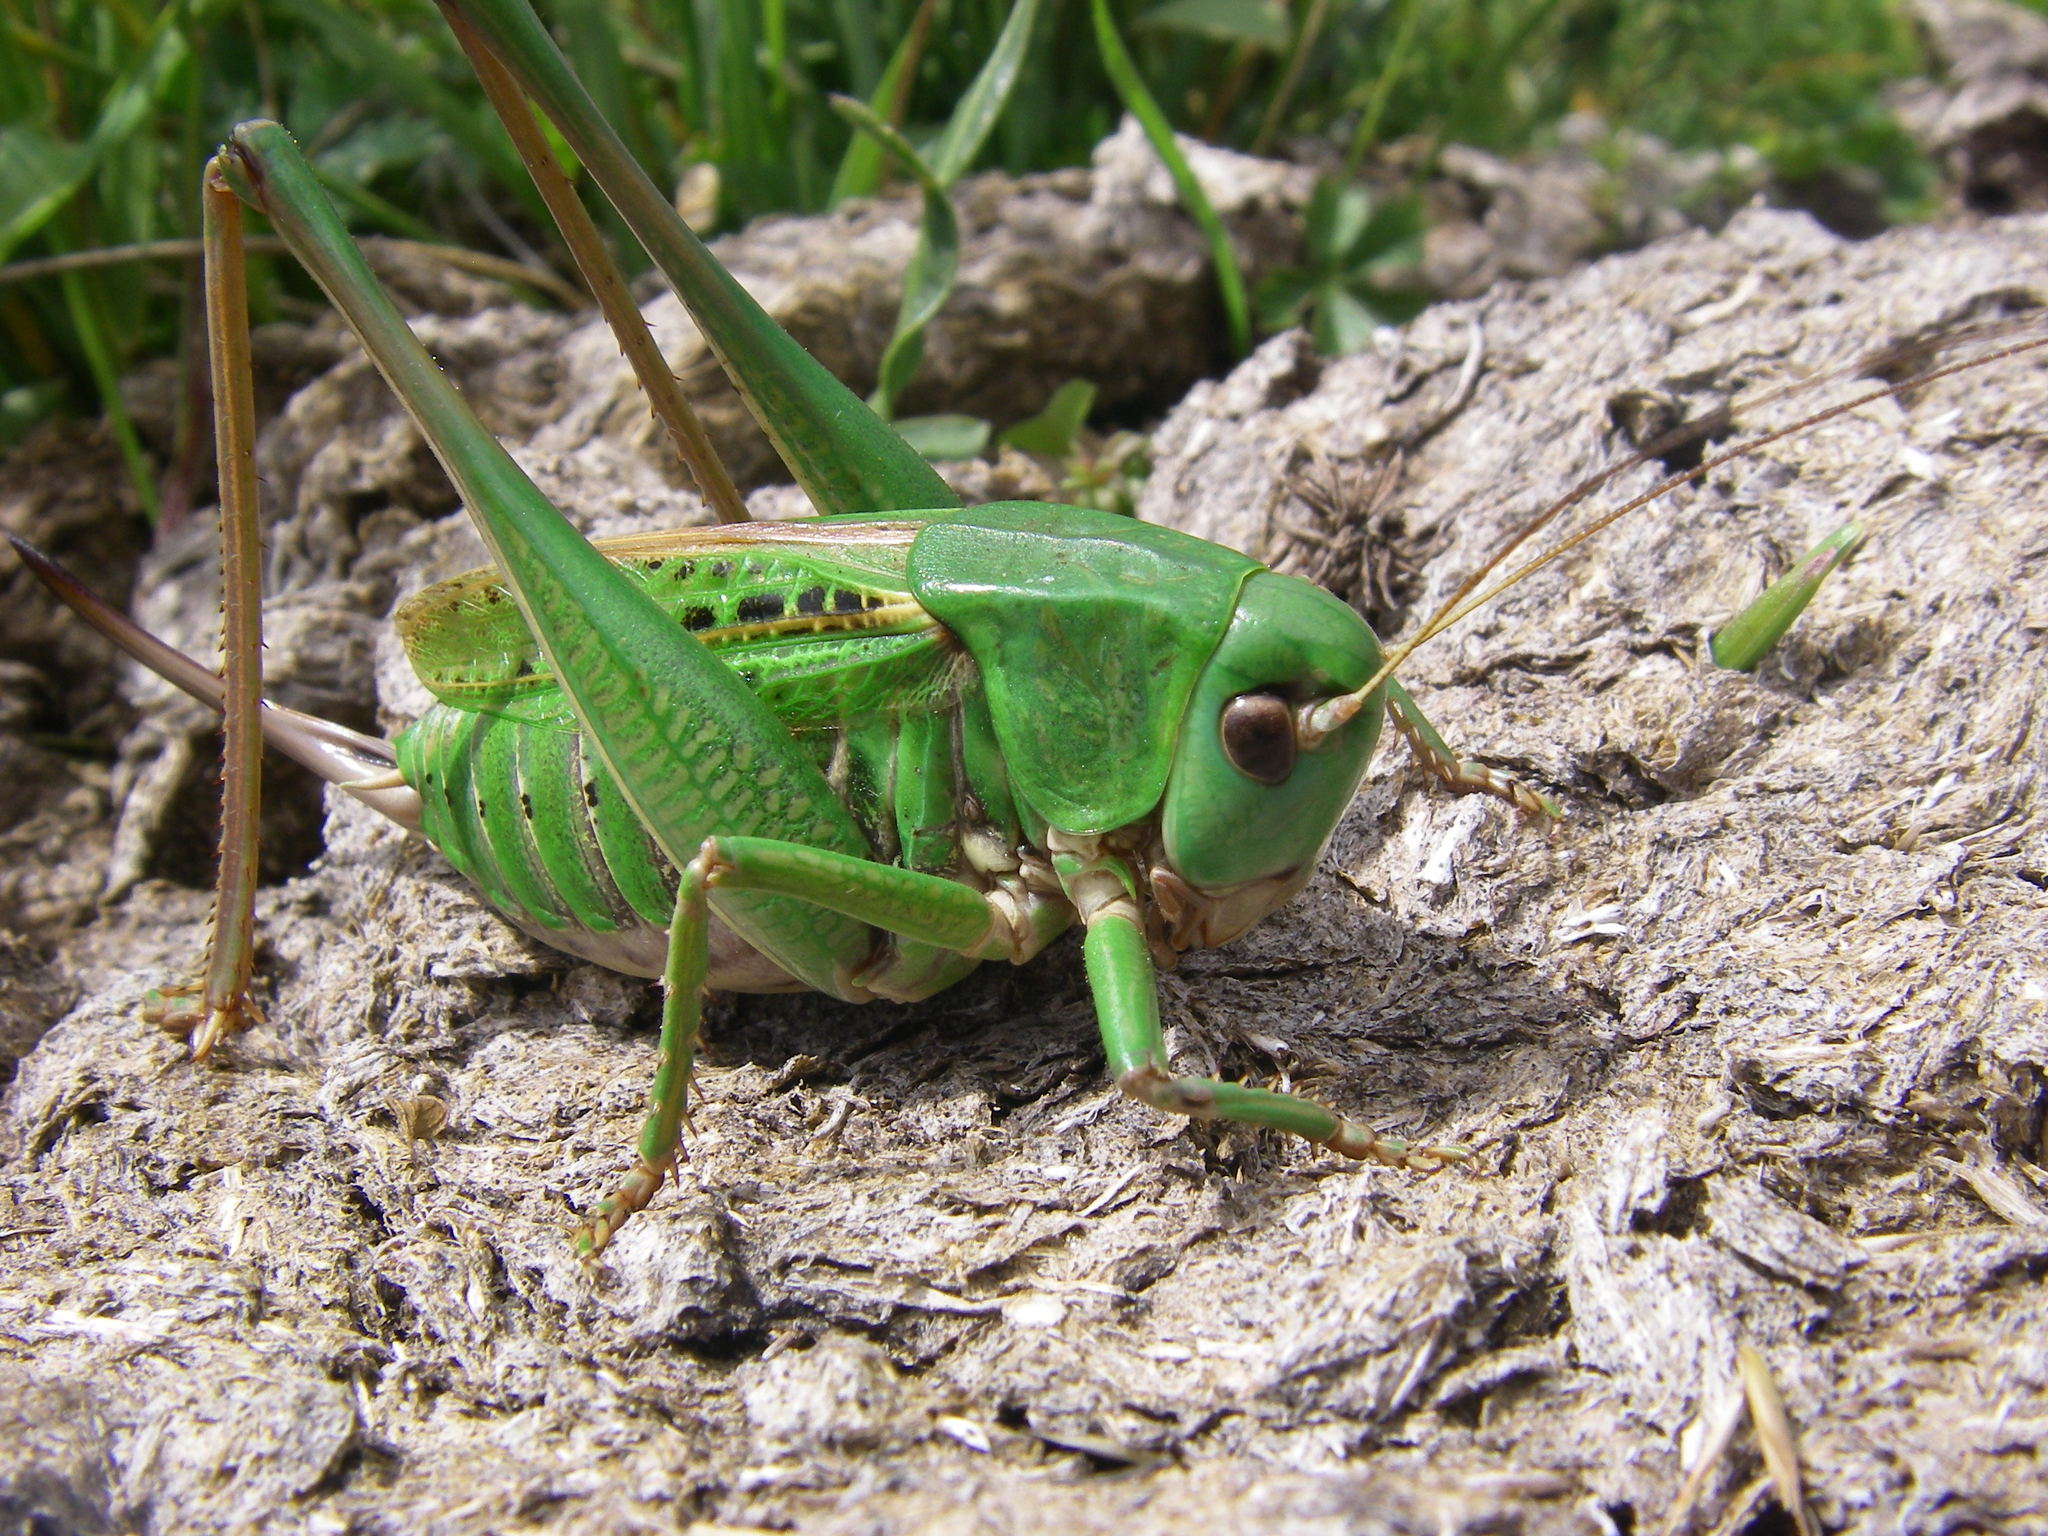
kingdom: Animalia
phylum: Arthropoda
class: Insecta
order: Orthoptera
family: Tettigoniidae
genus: Decticus
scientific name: Decticus verrucivorus
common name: Wart-biter
